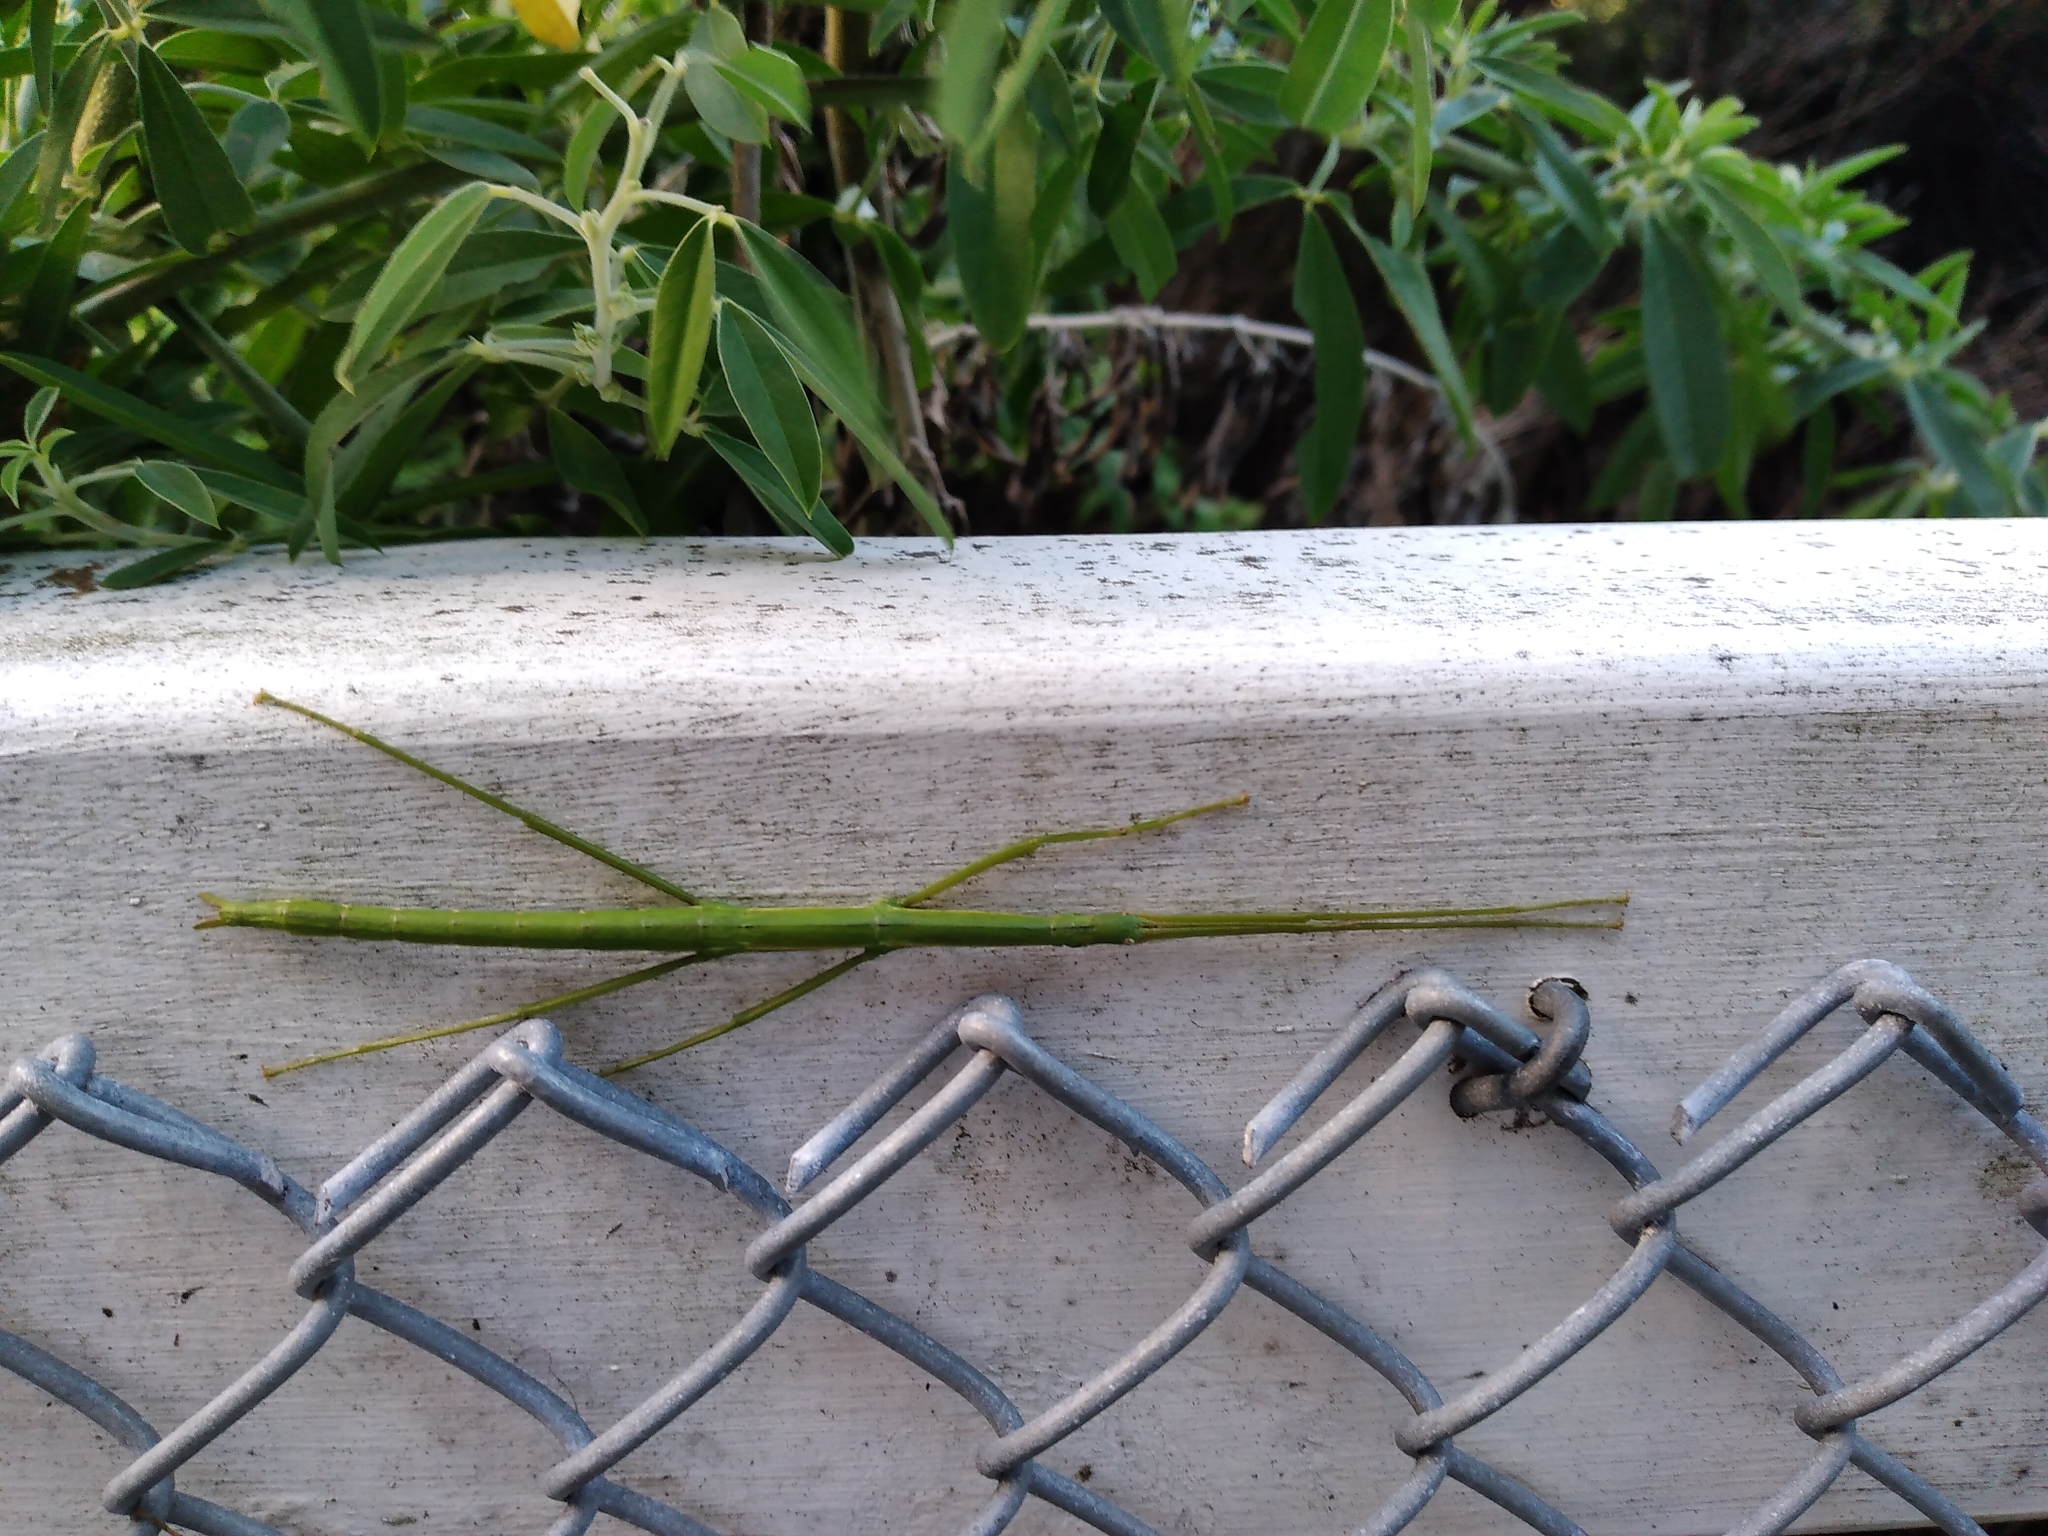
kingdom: Animalia
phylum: Arthropoda
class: Insecta
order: Phasmida
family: Phasmatidae
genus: Clitarchus
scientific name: Clitarchus hookeri
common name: Smooth stick insect
